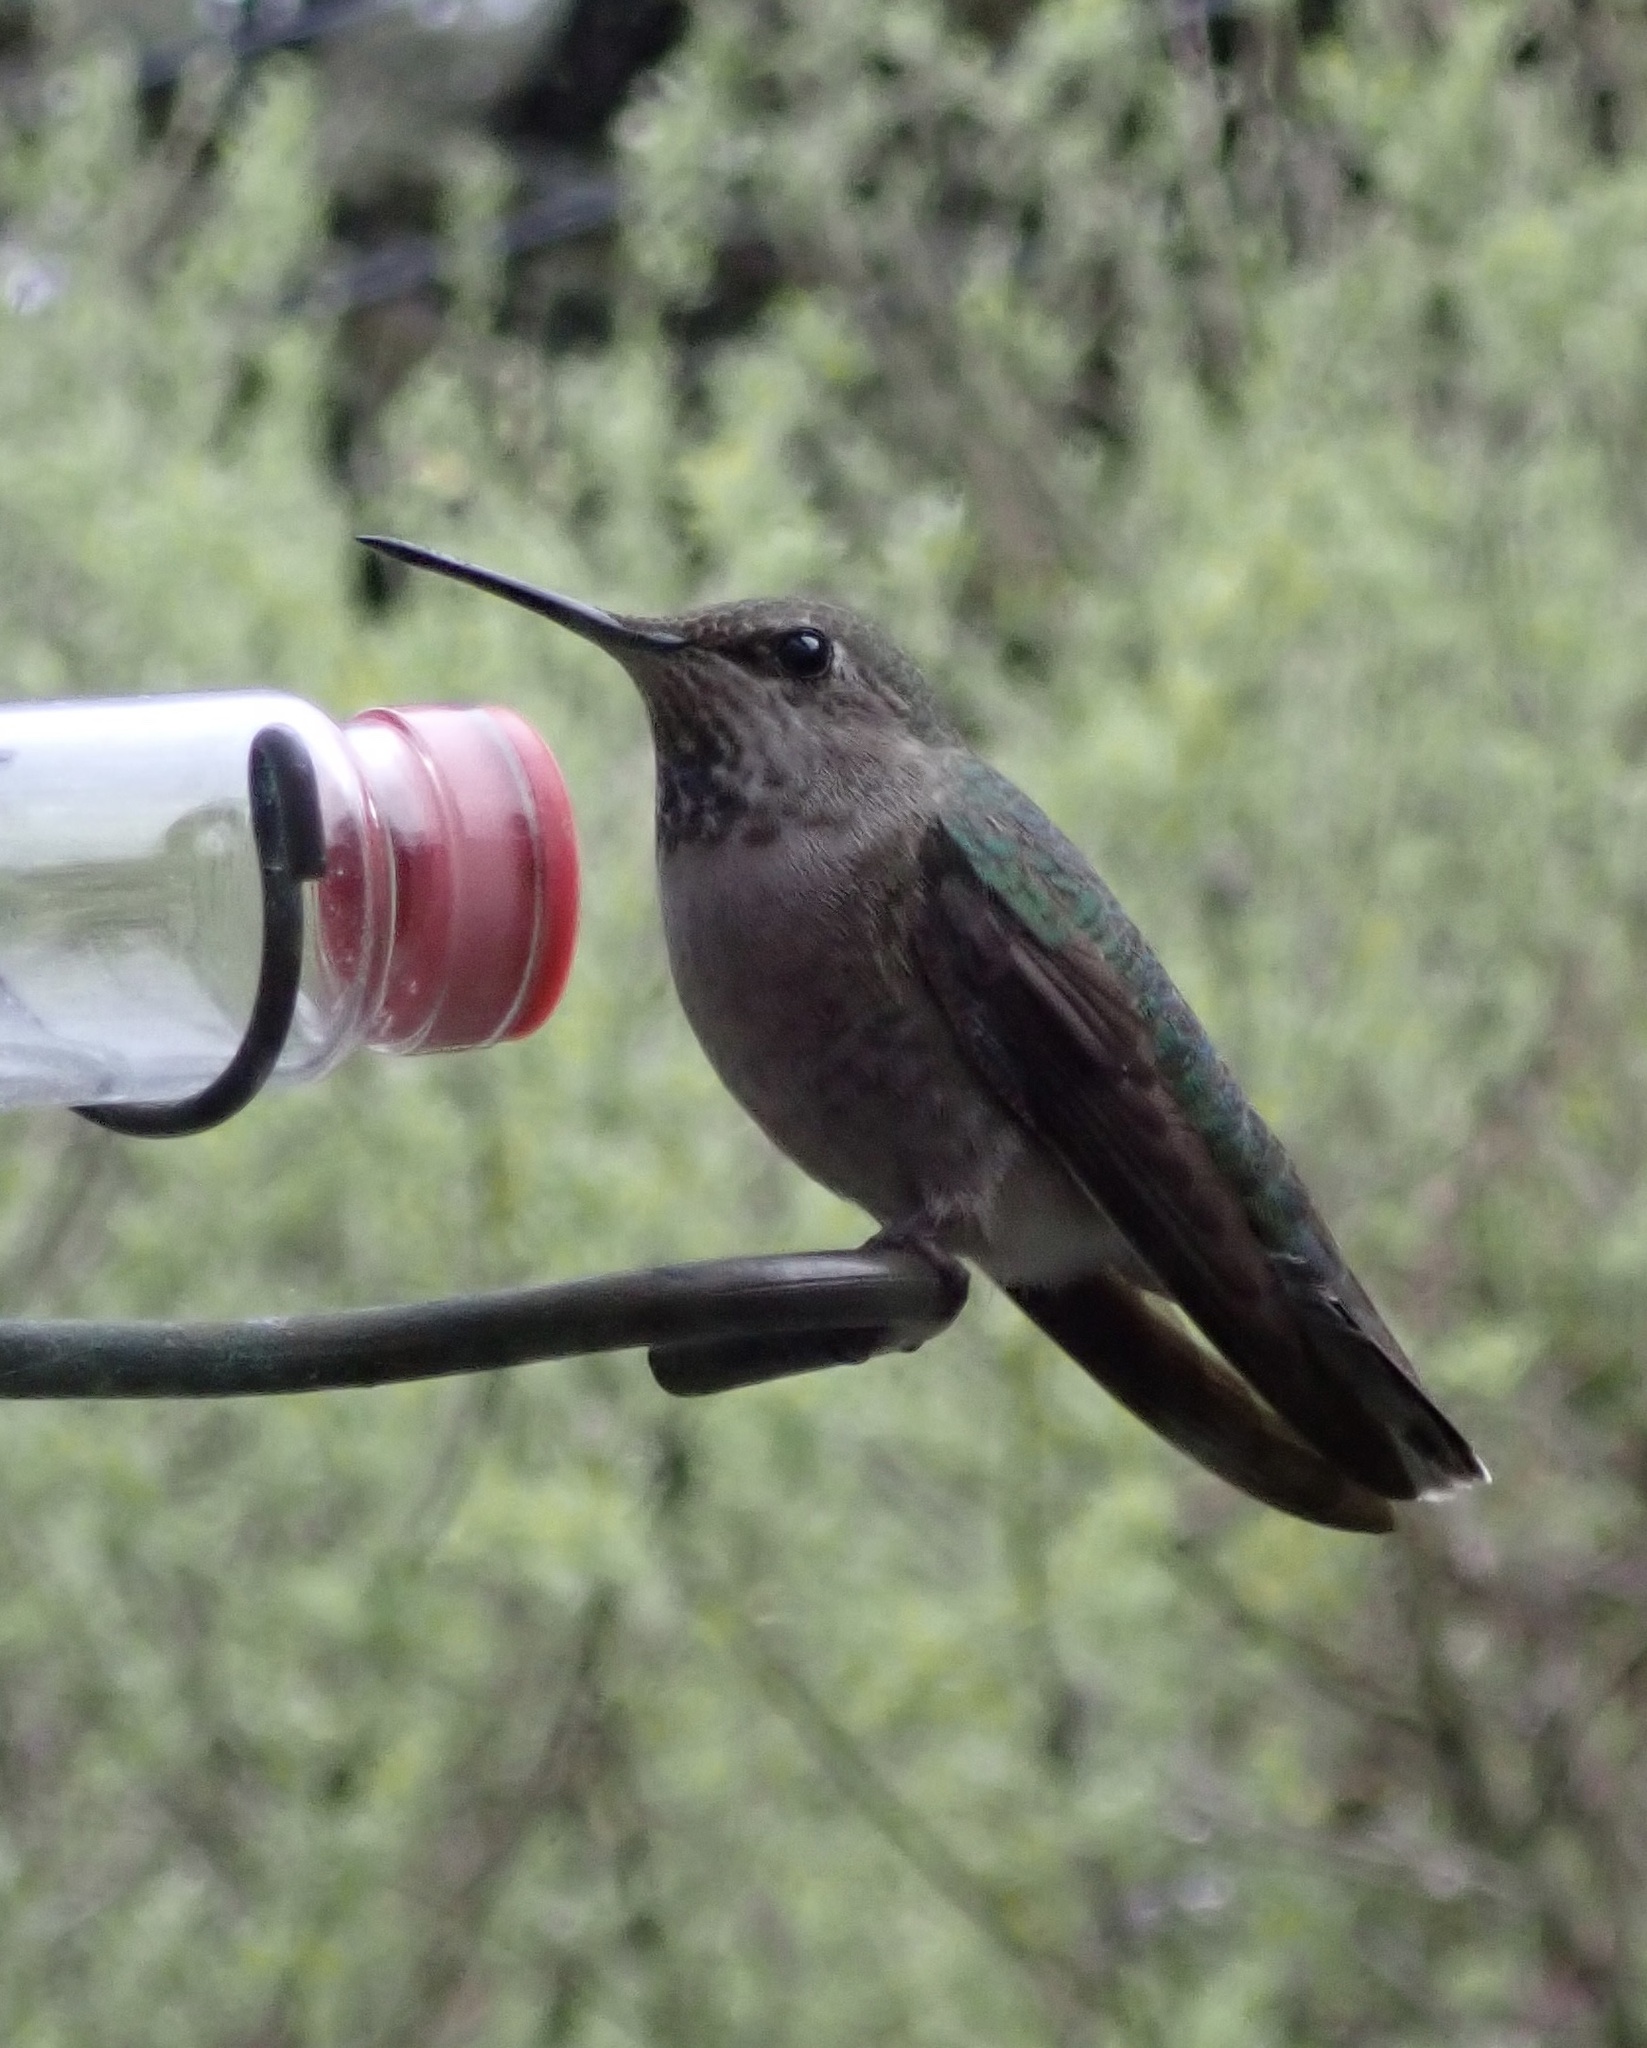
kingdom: Animalia
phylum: Chordata
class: Aves
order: Apodiformes
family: Trochilidae
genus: Calypte
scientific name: Calypte anna
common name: Anna's hummingbird
